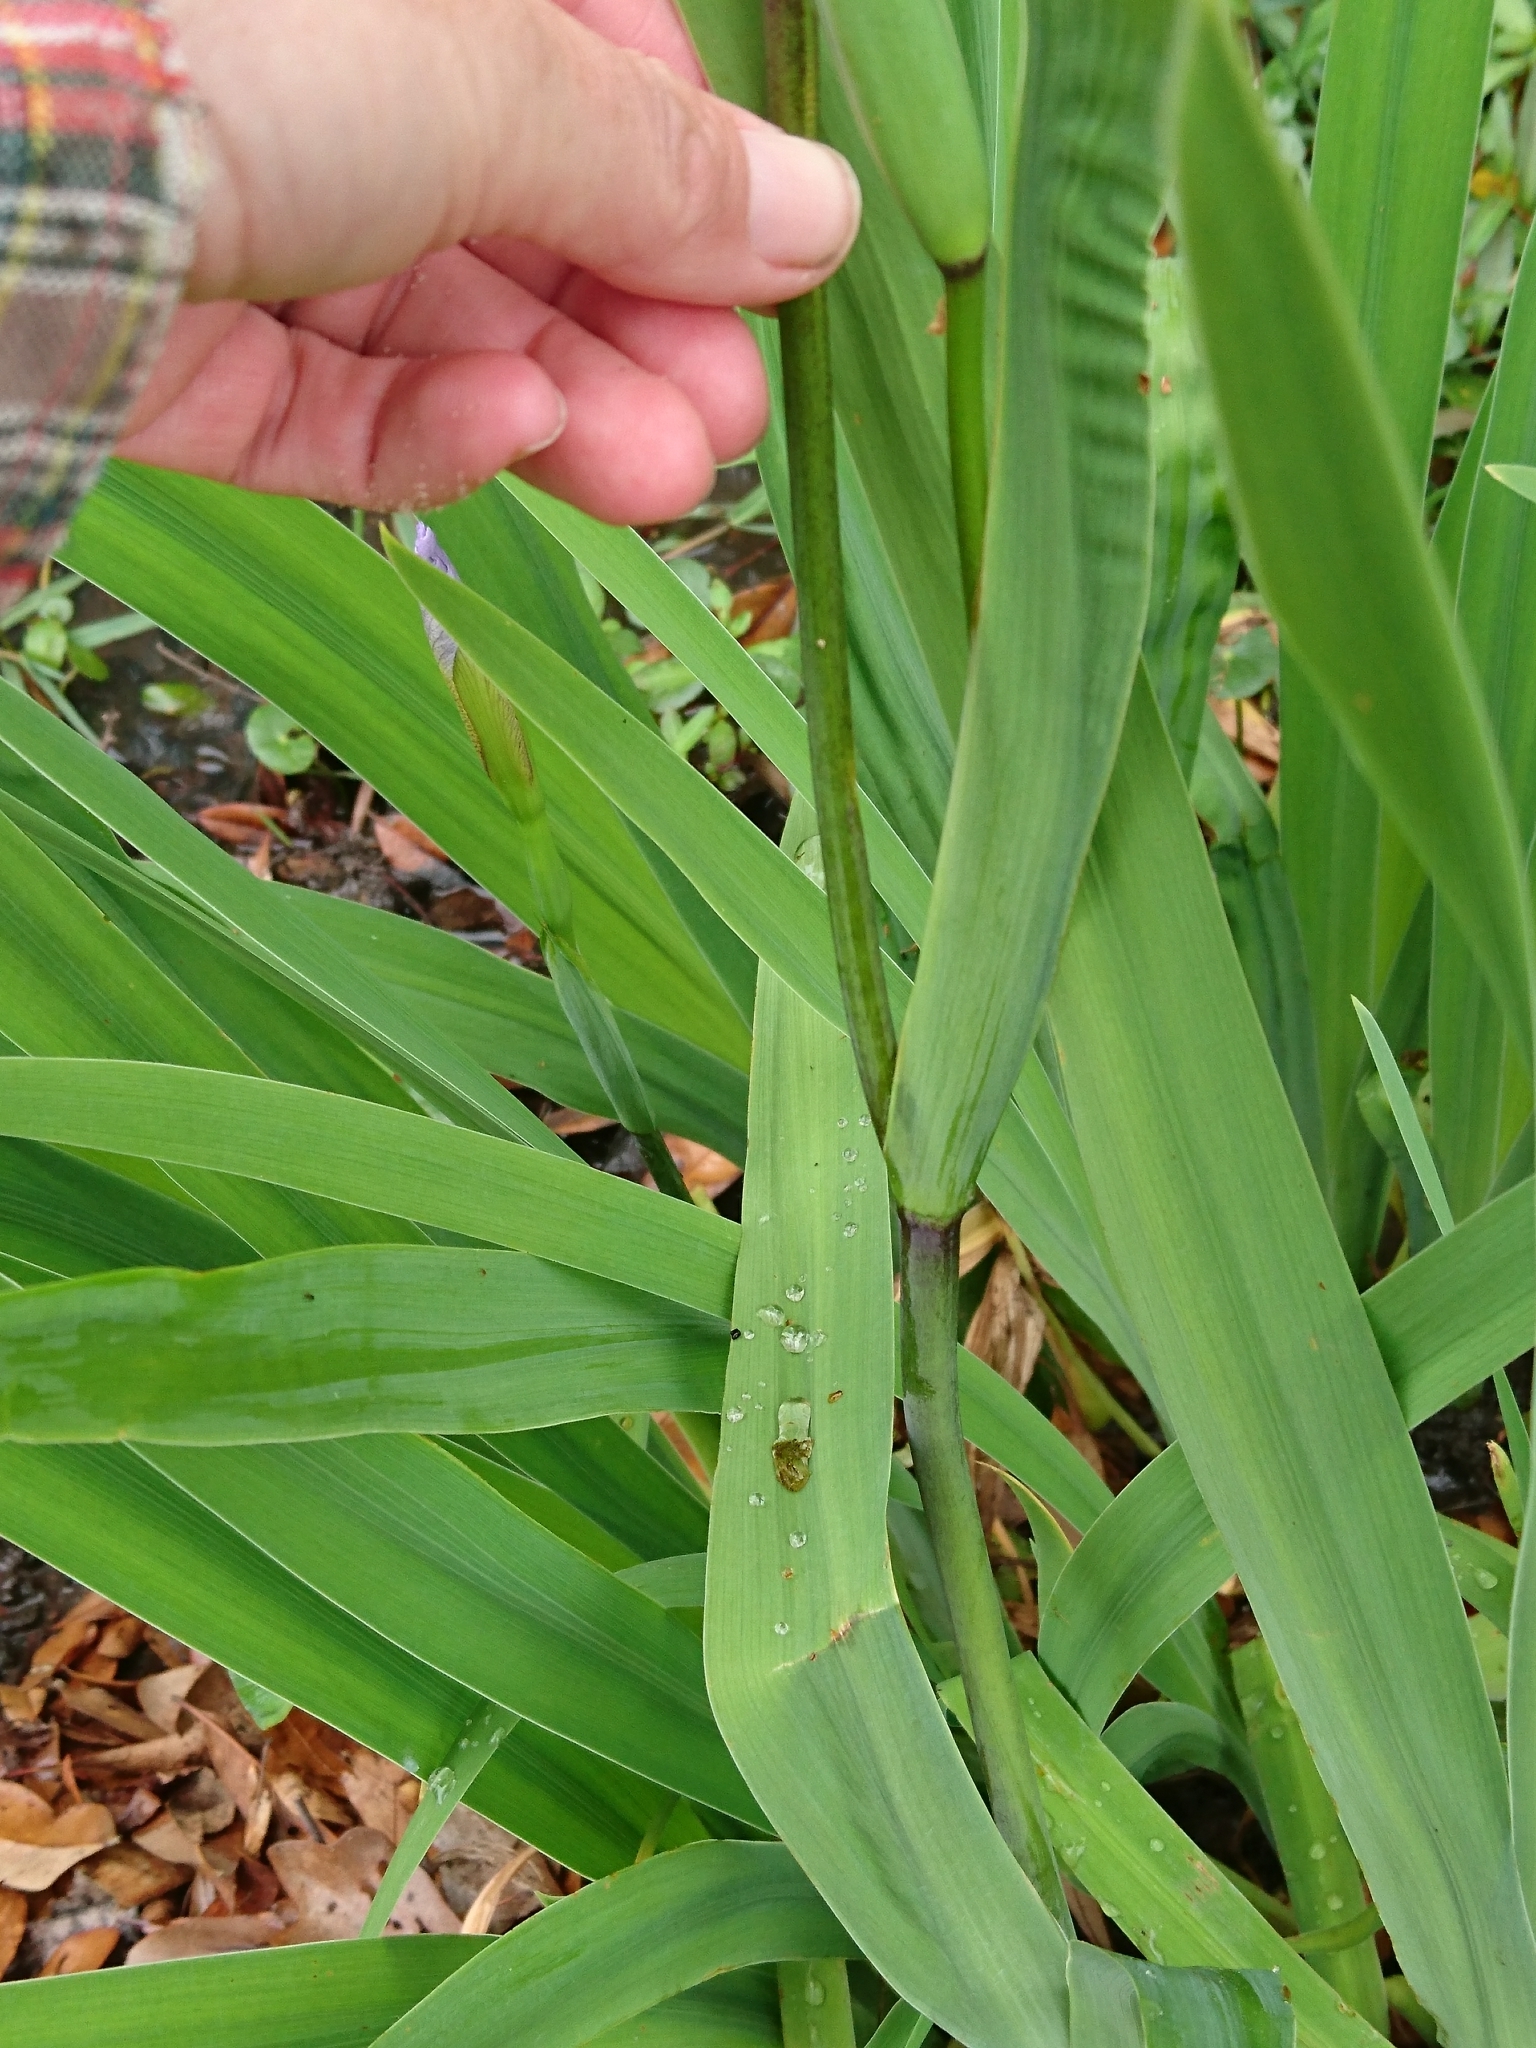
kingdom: Plantae
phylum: Tracheophyta
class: Liliopsida
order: Asparagales
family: Iridaceae
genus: Iris
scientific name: Iris virginica
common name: Southern blue flag
